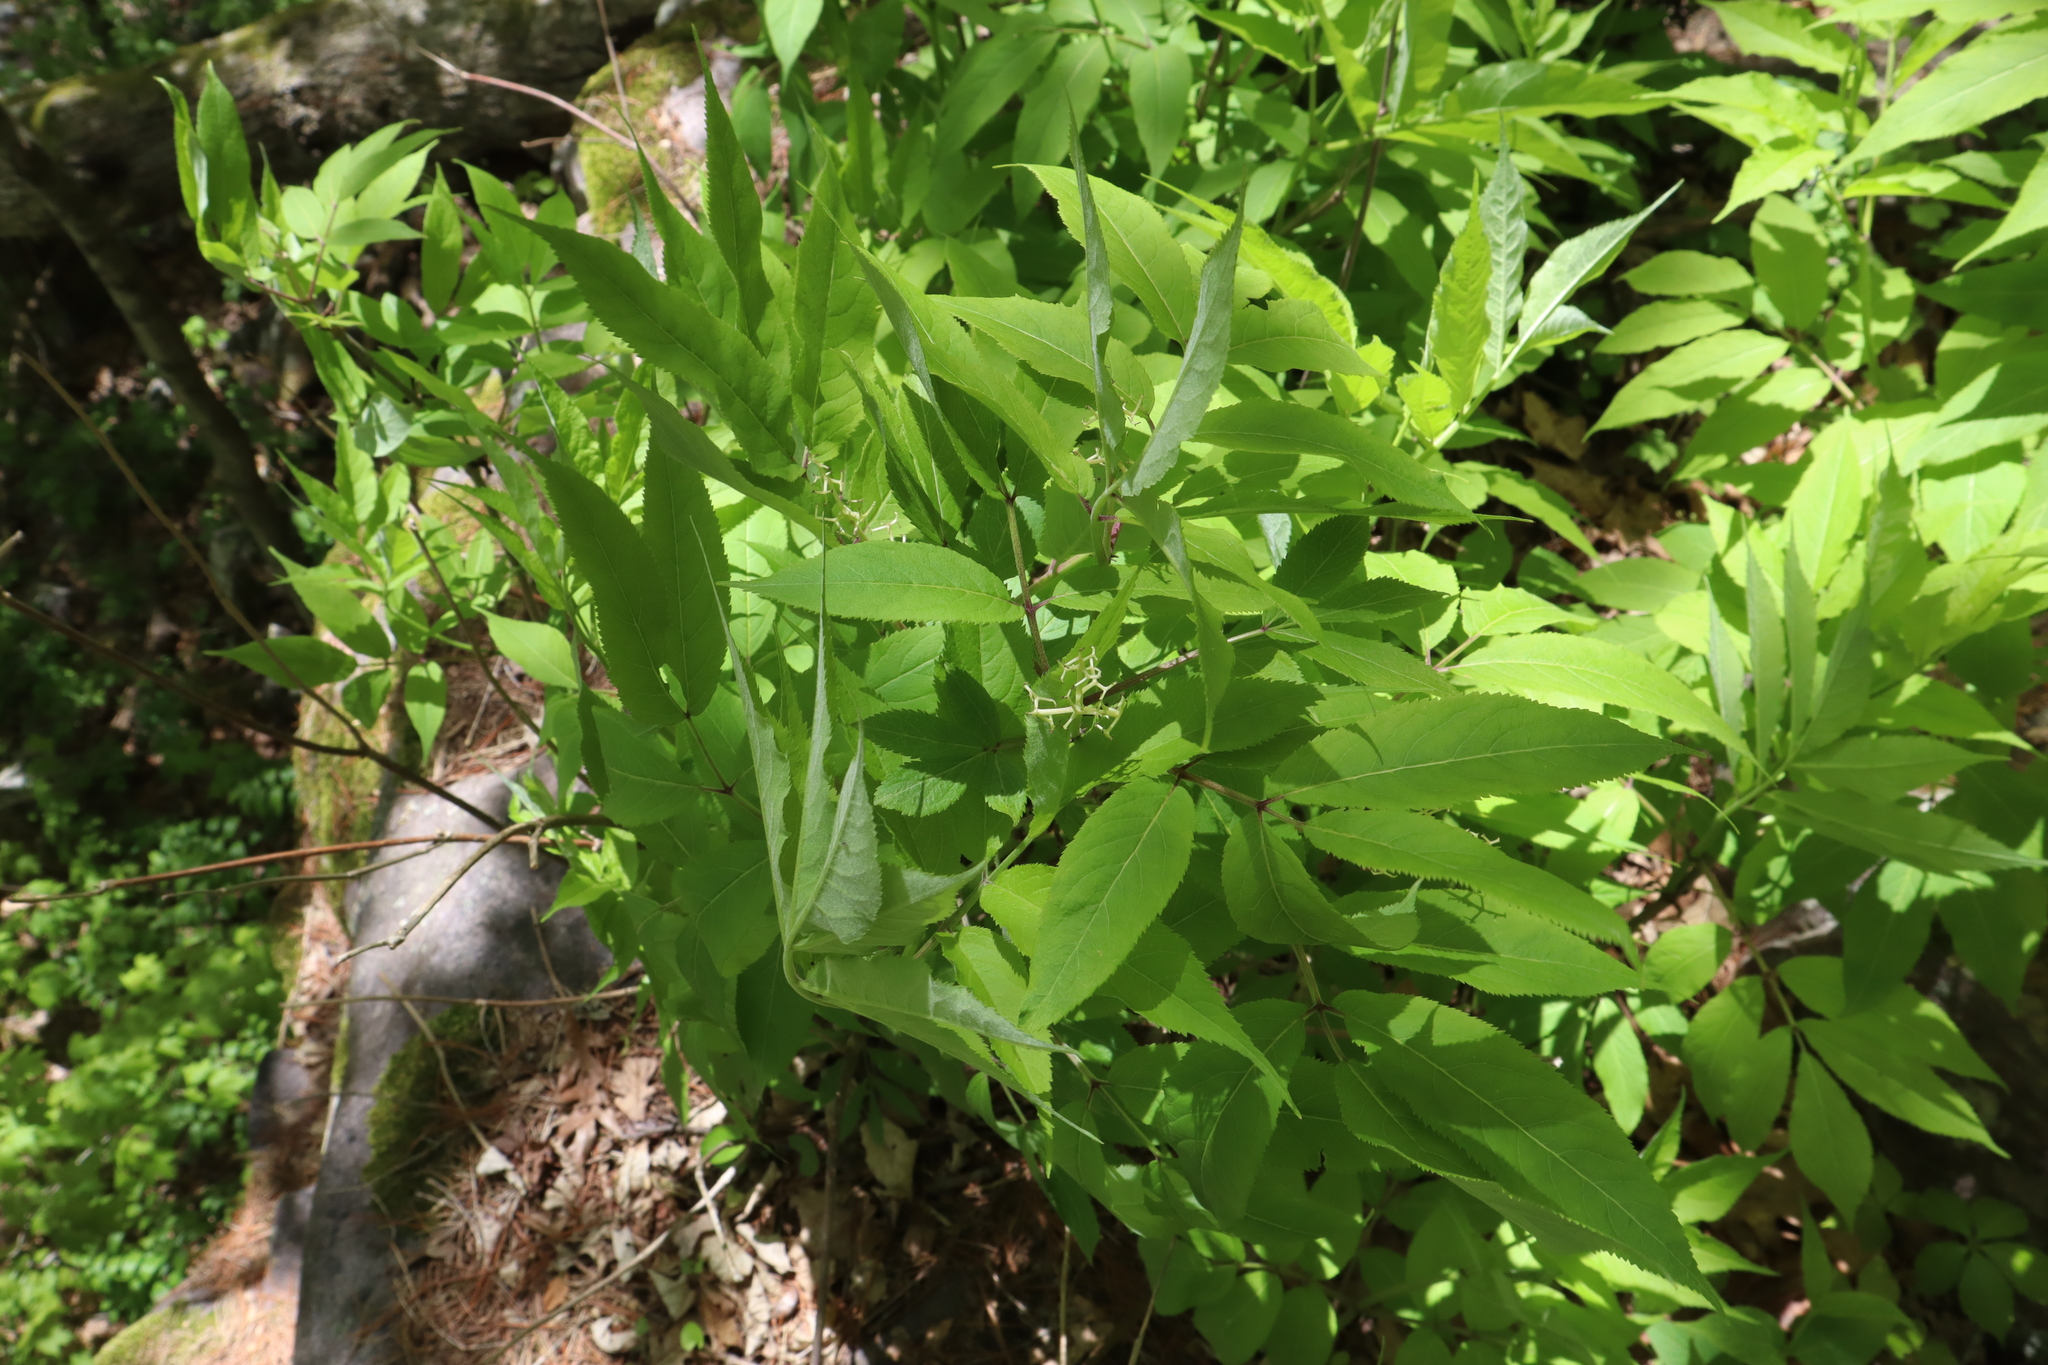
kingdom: Plantae
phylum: Tracheophyta
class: Magnoliopsida
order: Dipsacales
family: Viburnaceae
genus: Sambucus
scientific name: Sambucus racemosa
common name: Red-berried elder
